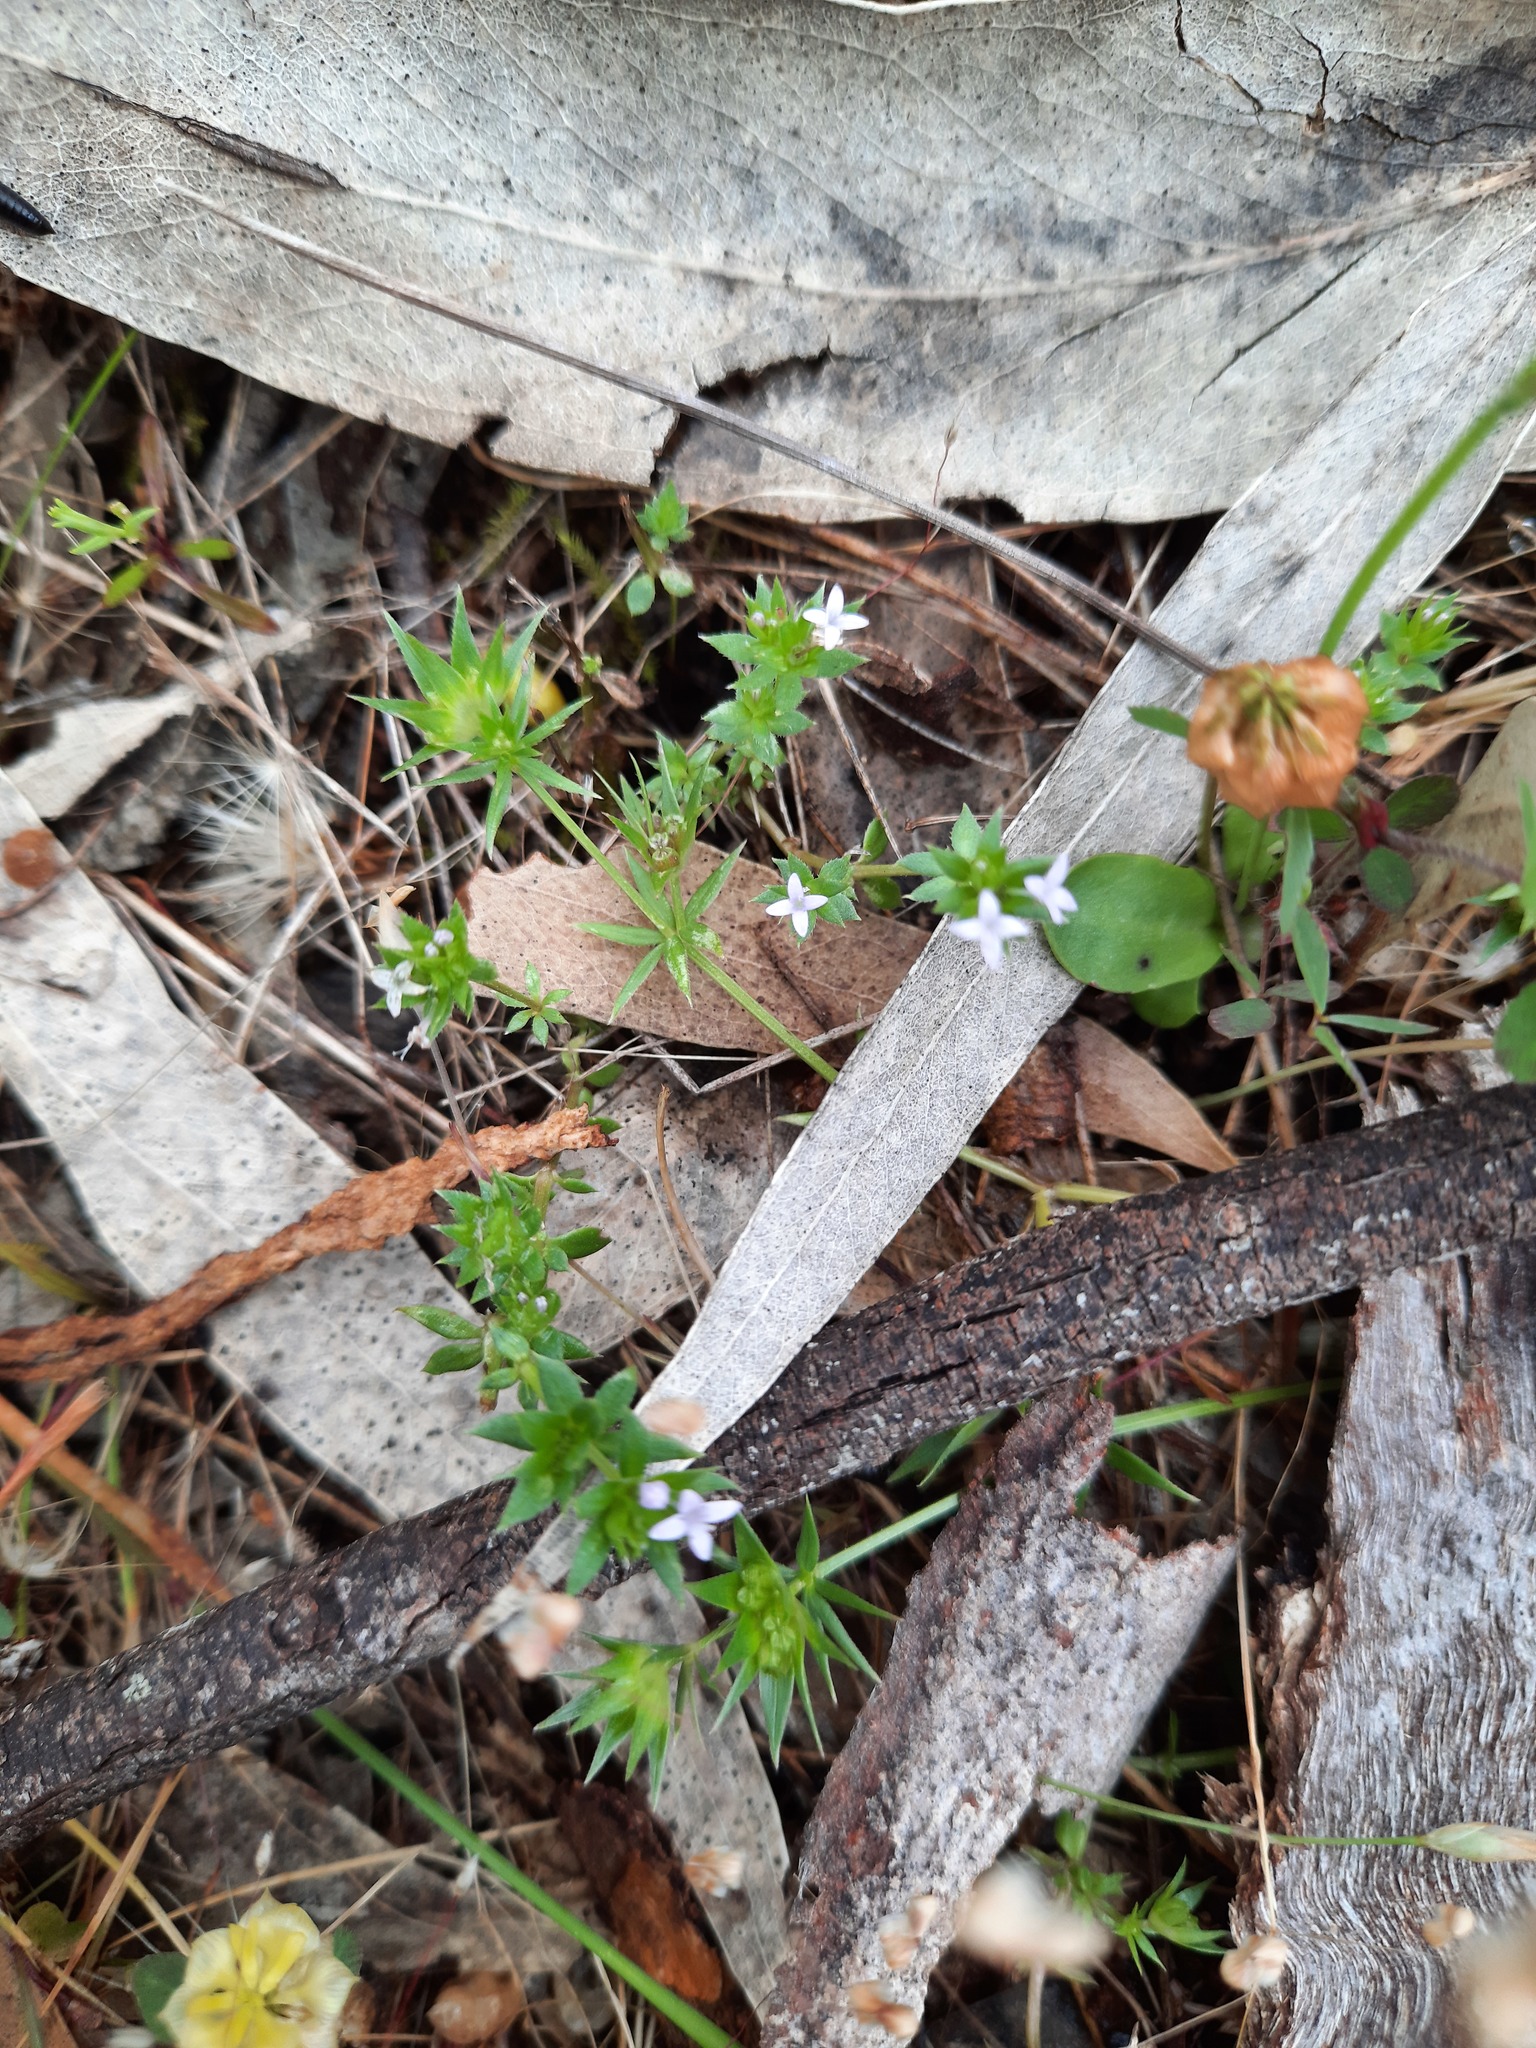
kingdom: Plantae
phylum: Tracheophyta
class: Magnoliopsida
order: Gentianales
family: Rubiaceae
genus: Sherardia
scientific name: Sherardia arvensis
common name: Field madder
